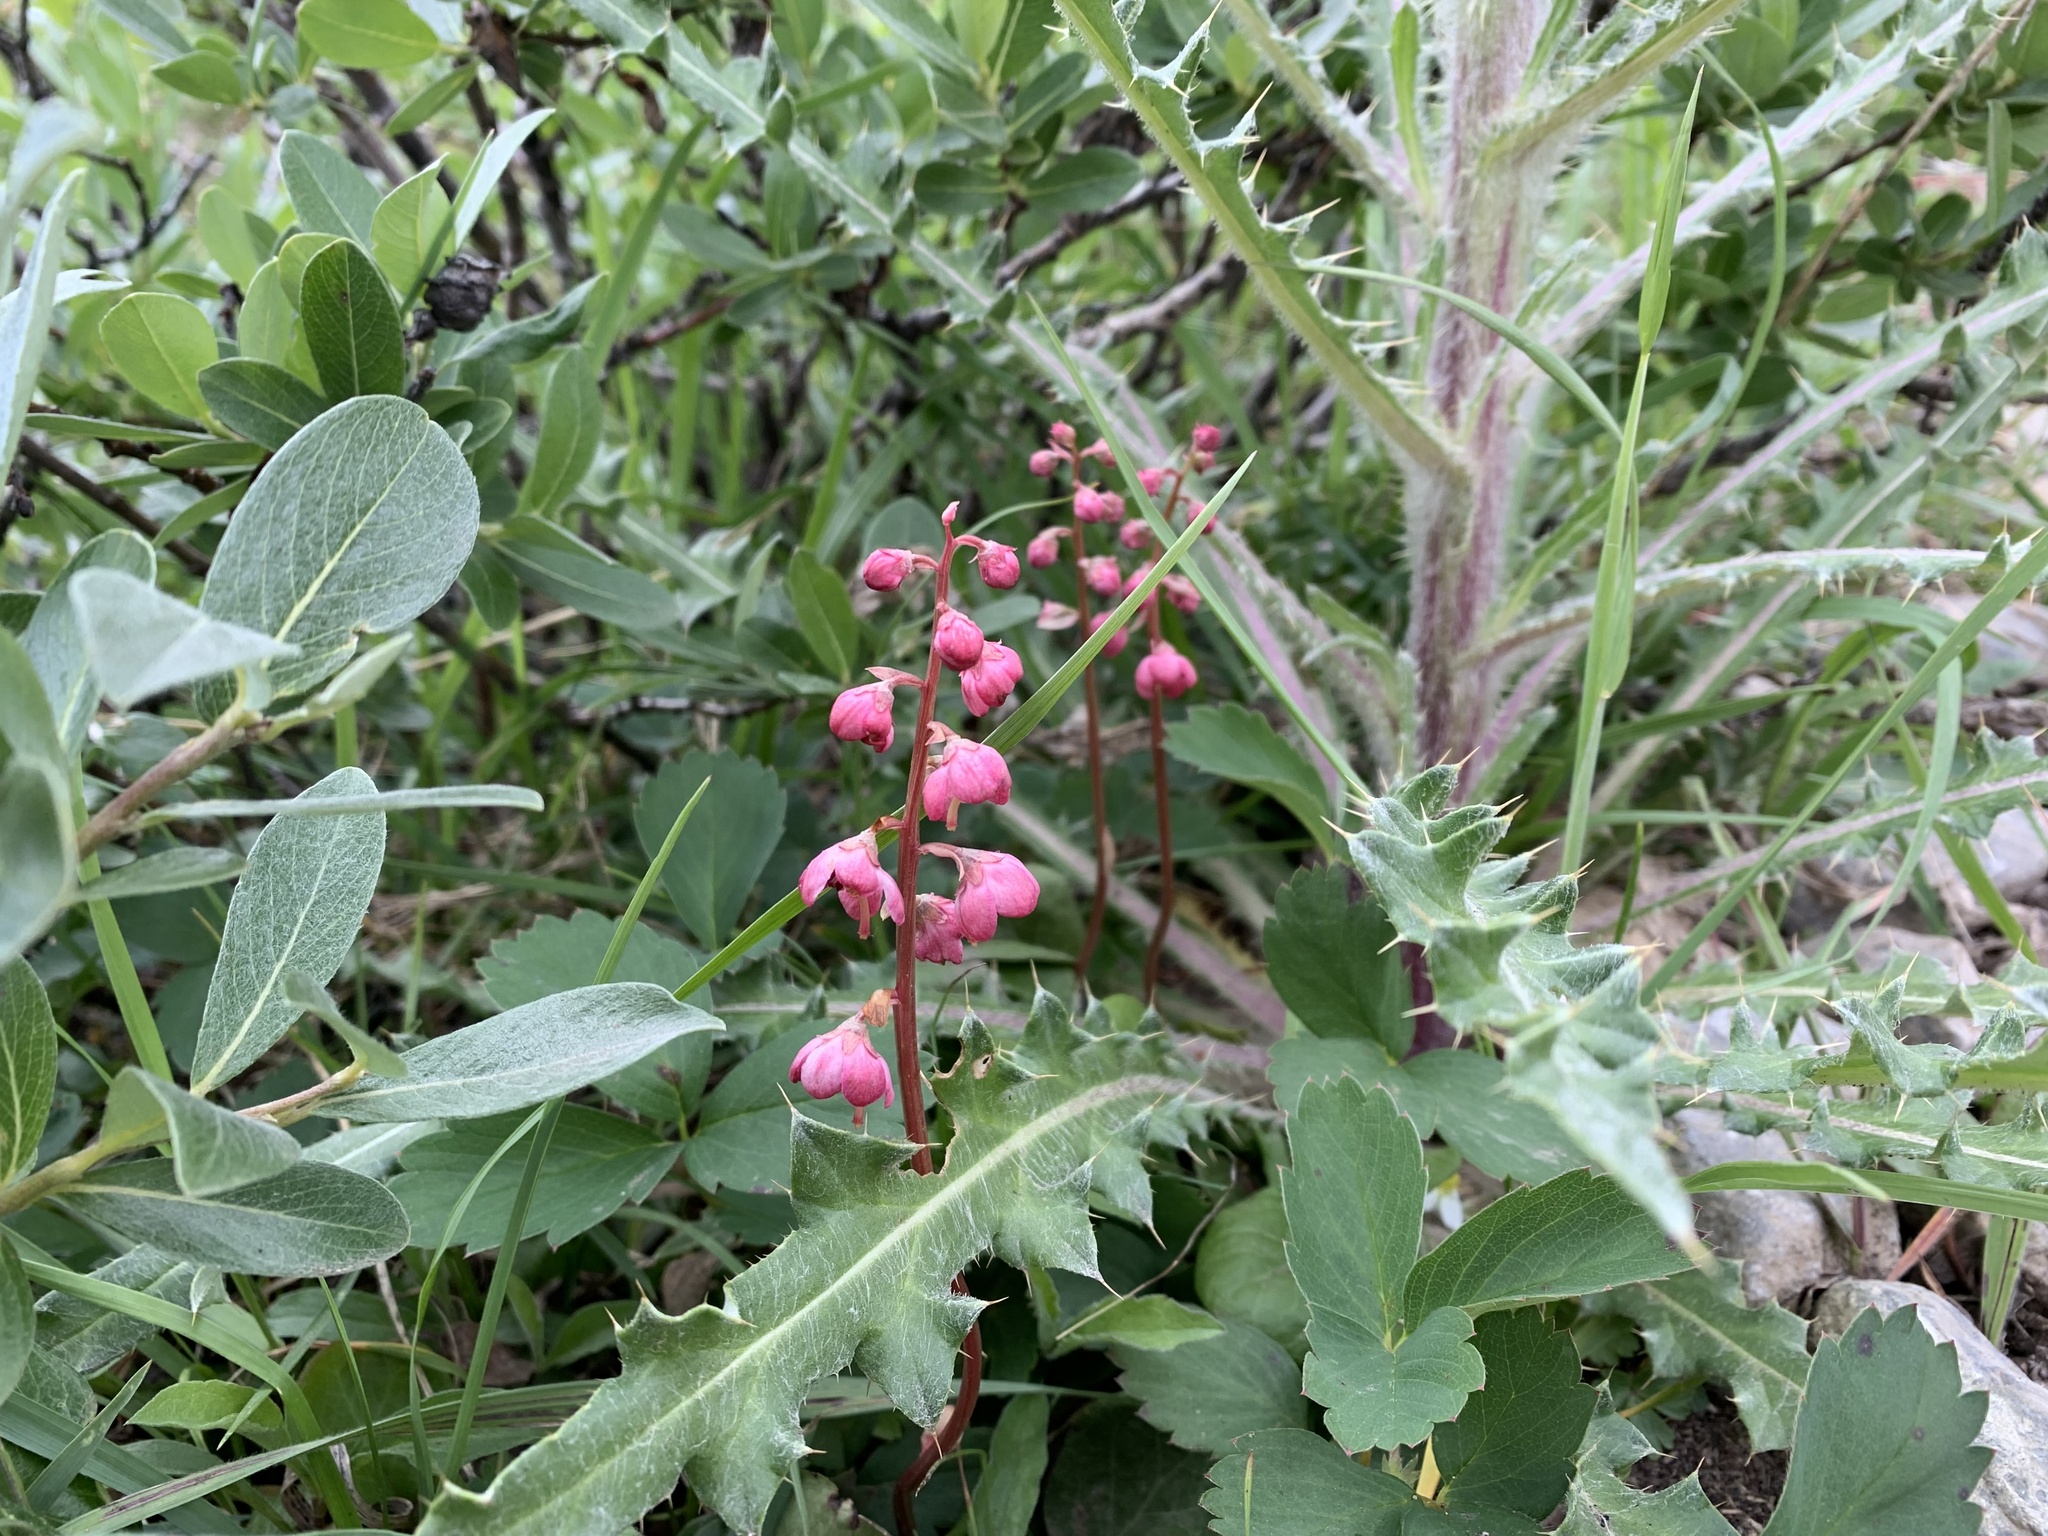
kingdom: Plantae
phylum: Tracheophyta
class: Magnoliopsida
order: Ericales
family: Ericaceae
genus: Pyrola
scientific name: Pyrola asarifolia
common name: Bog wintergreen
